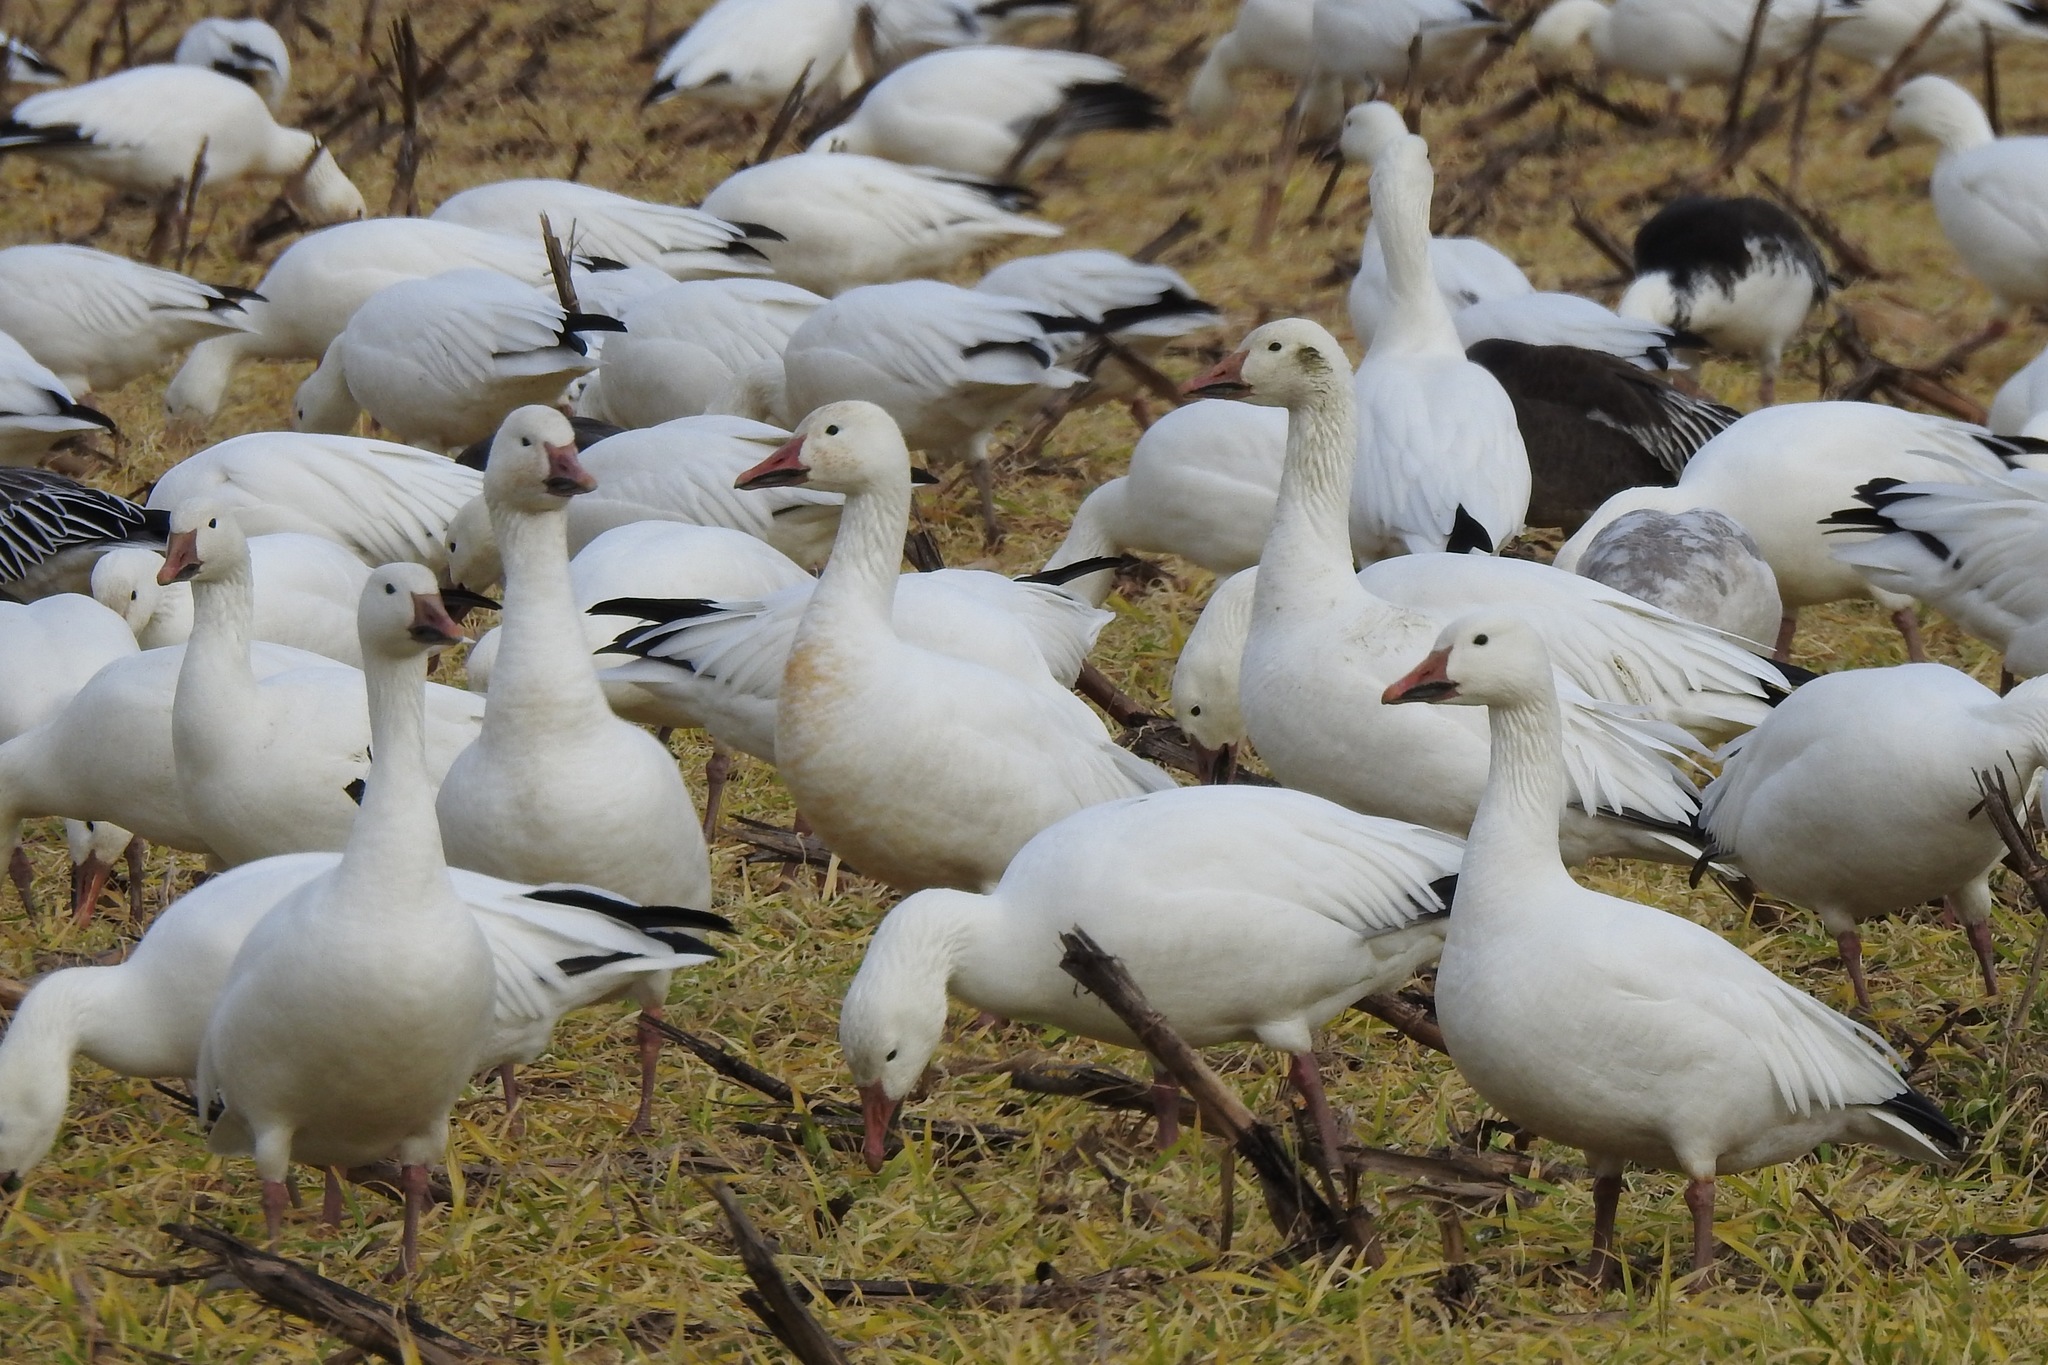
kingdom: Animalia
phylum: Chordata
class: Aves
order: Anseriformes
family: Anatidae
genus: Anser
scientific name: Anser caerulescens
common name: Snow goose
